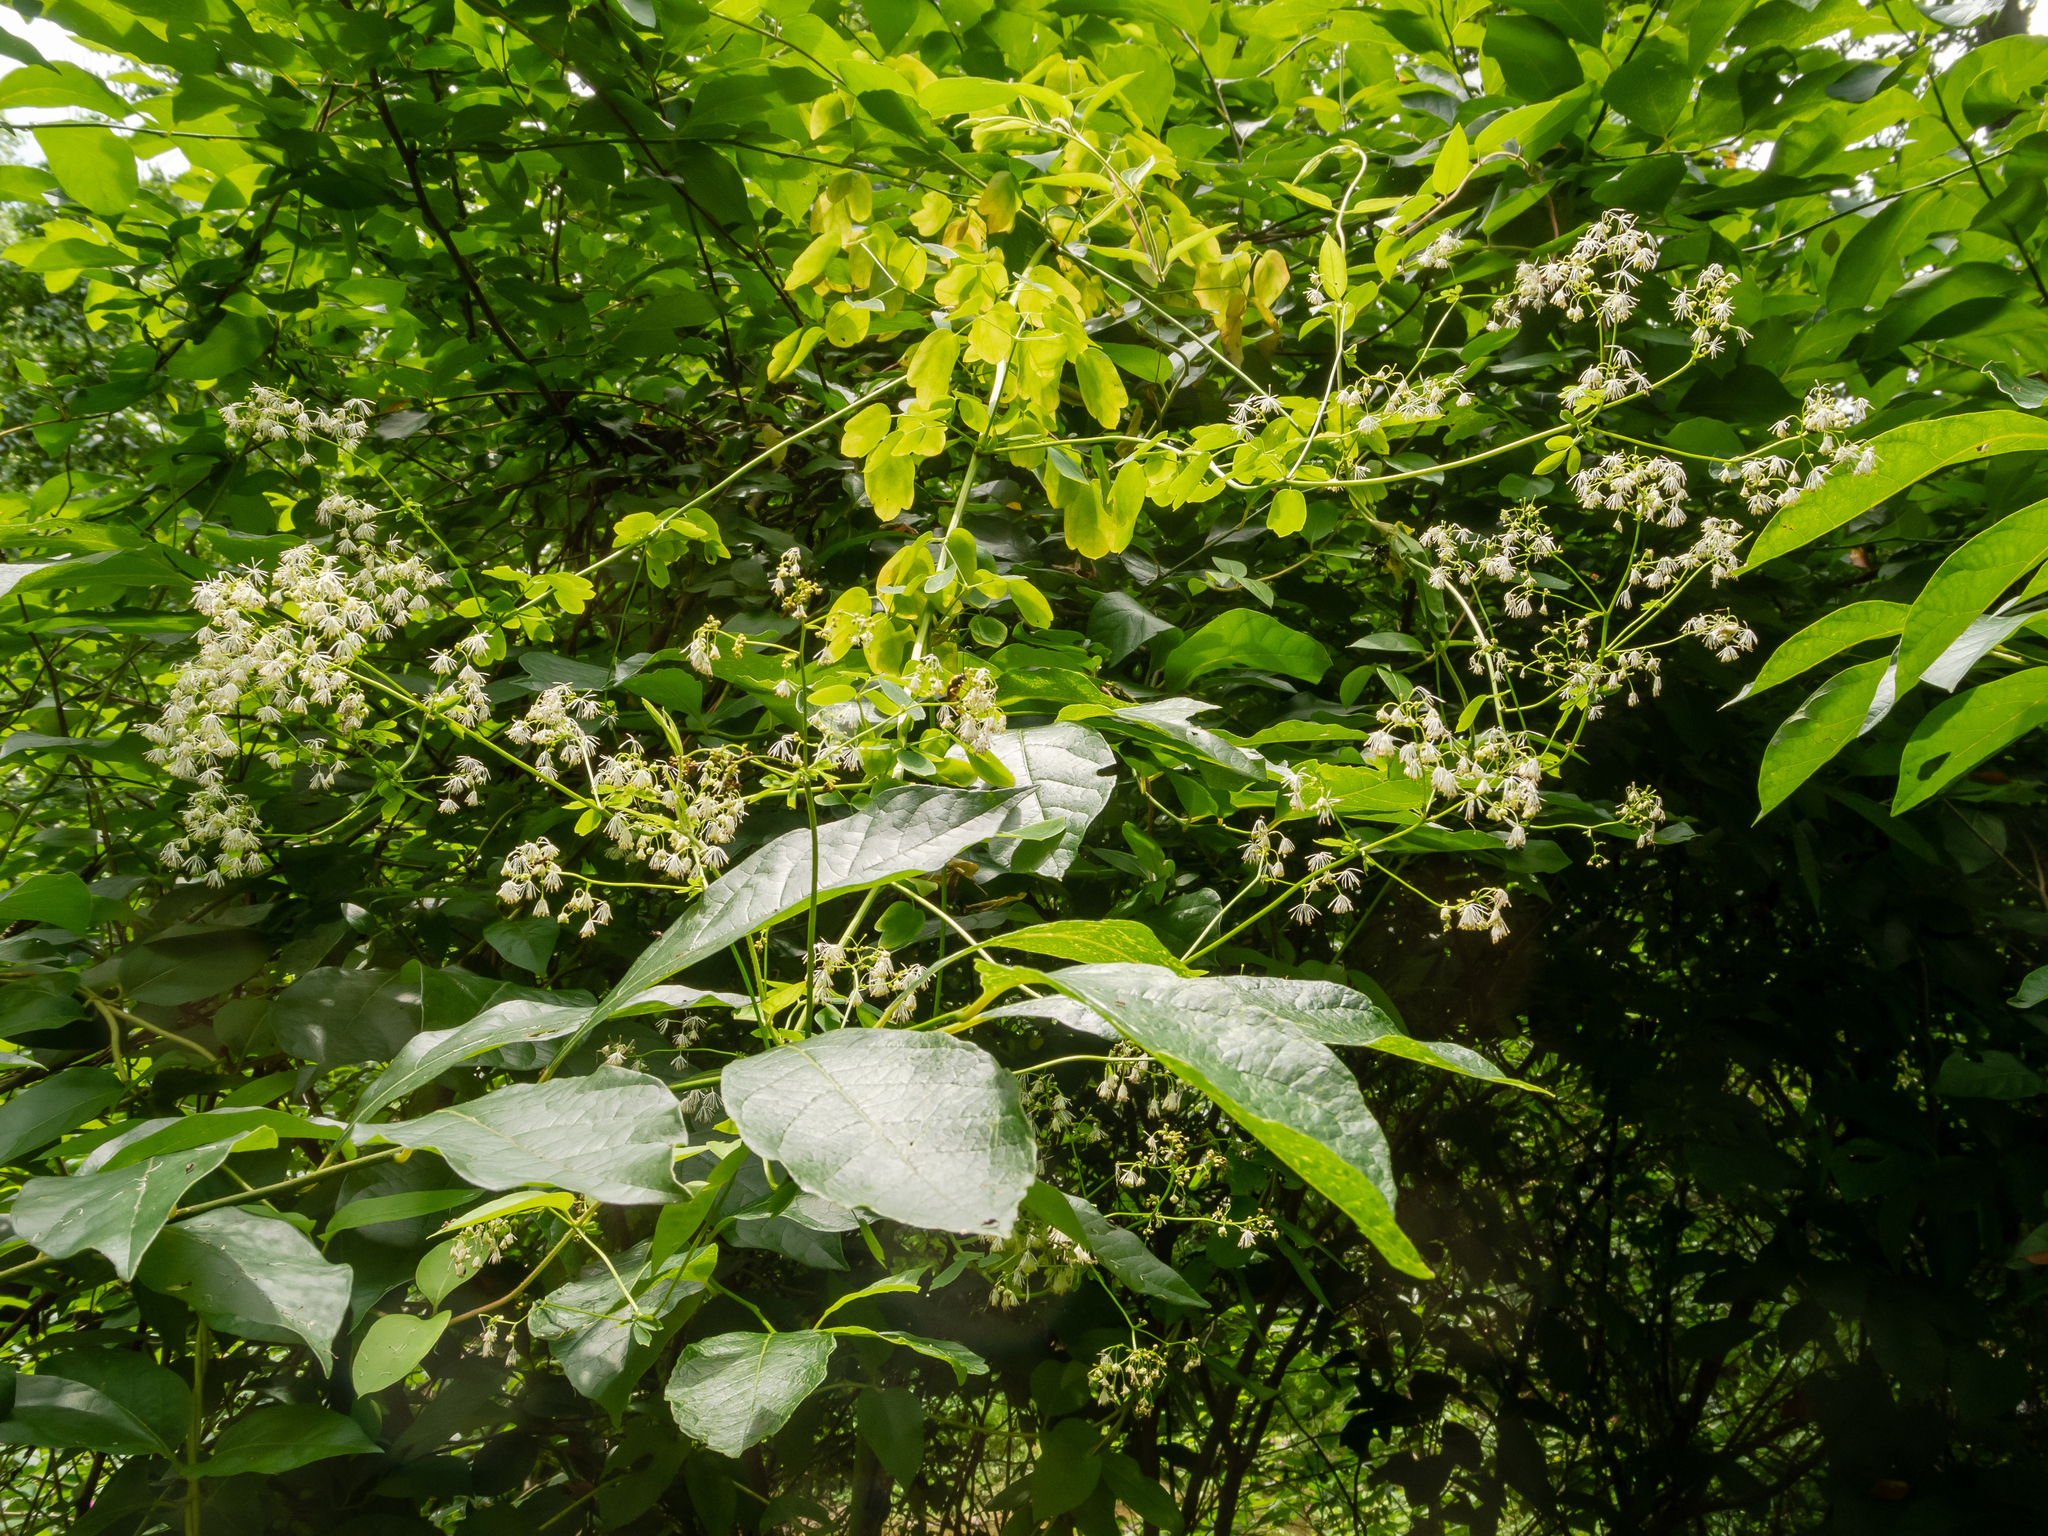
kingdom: Plantae
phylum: Tracheophyta
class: Magnoliopsida
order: Ranunculales
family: Ranunculaceae
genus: Thalictrum
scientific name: Thalictrum pubescens
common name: King-of-the-meadow
